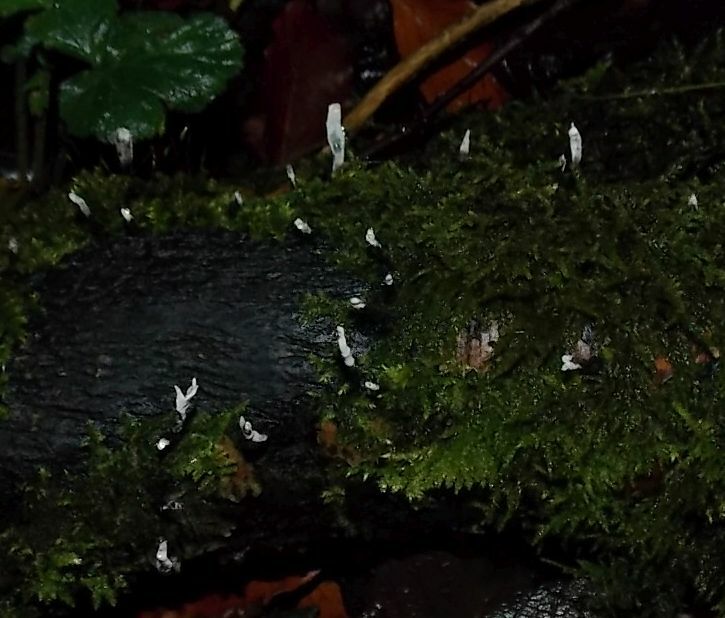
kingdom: Fungi
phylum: Ascomycota
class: Sordariomycetes
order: Xylariales
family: Xylariaceae
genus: Xylaria
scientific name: Xylaria hypoxylon
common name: Candle-snuff fungus
